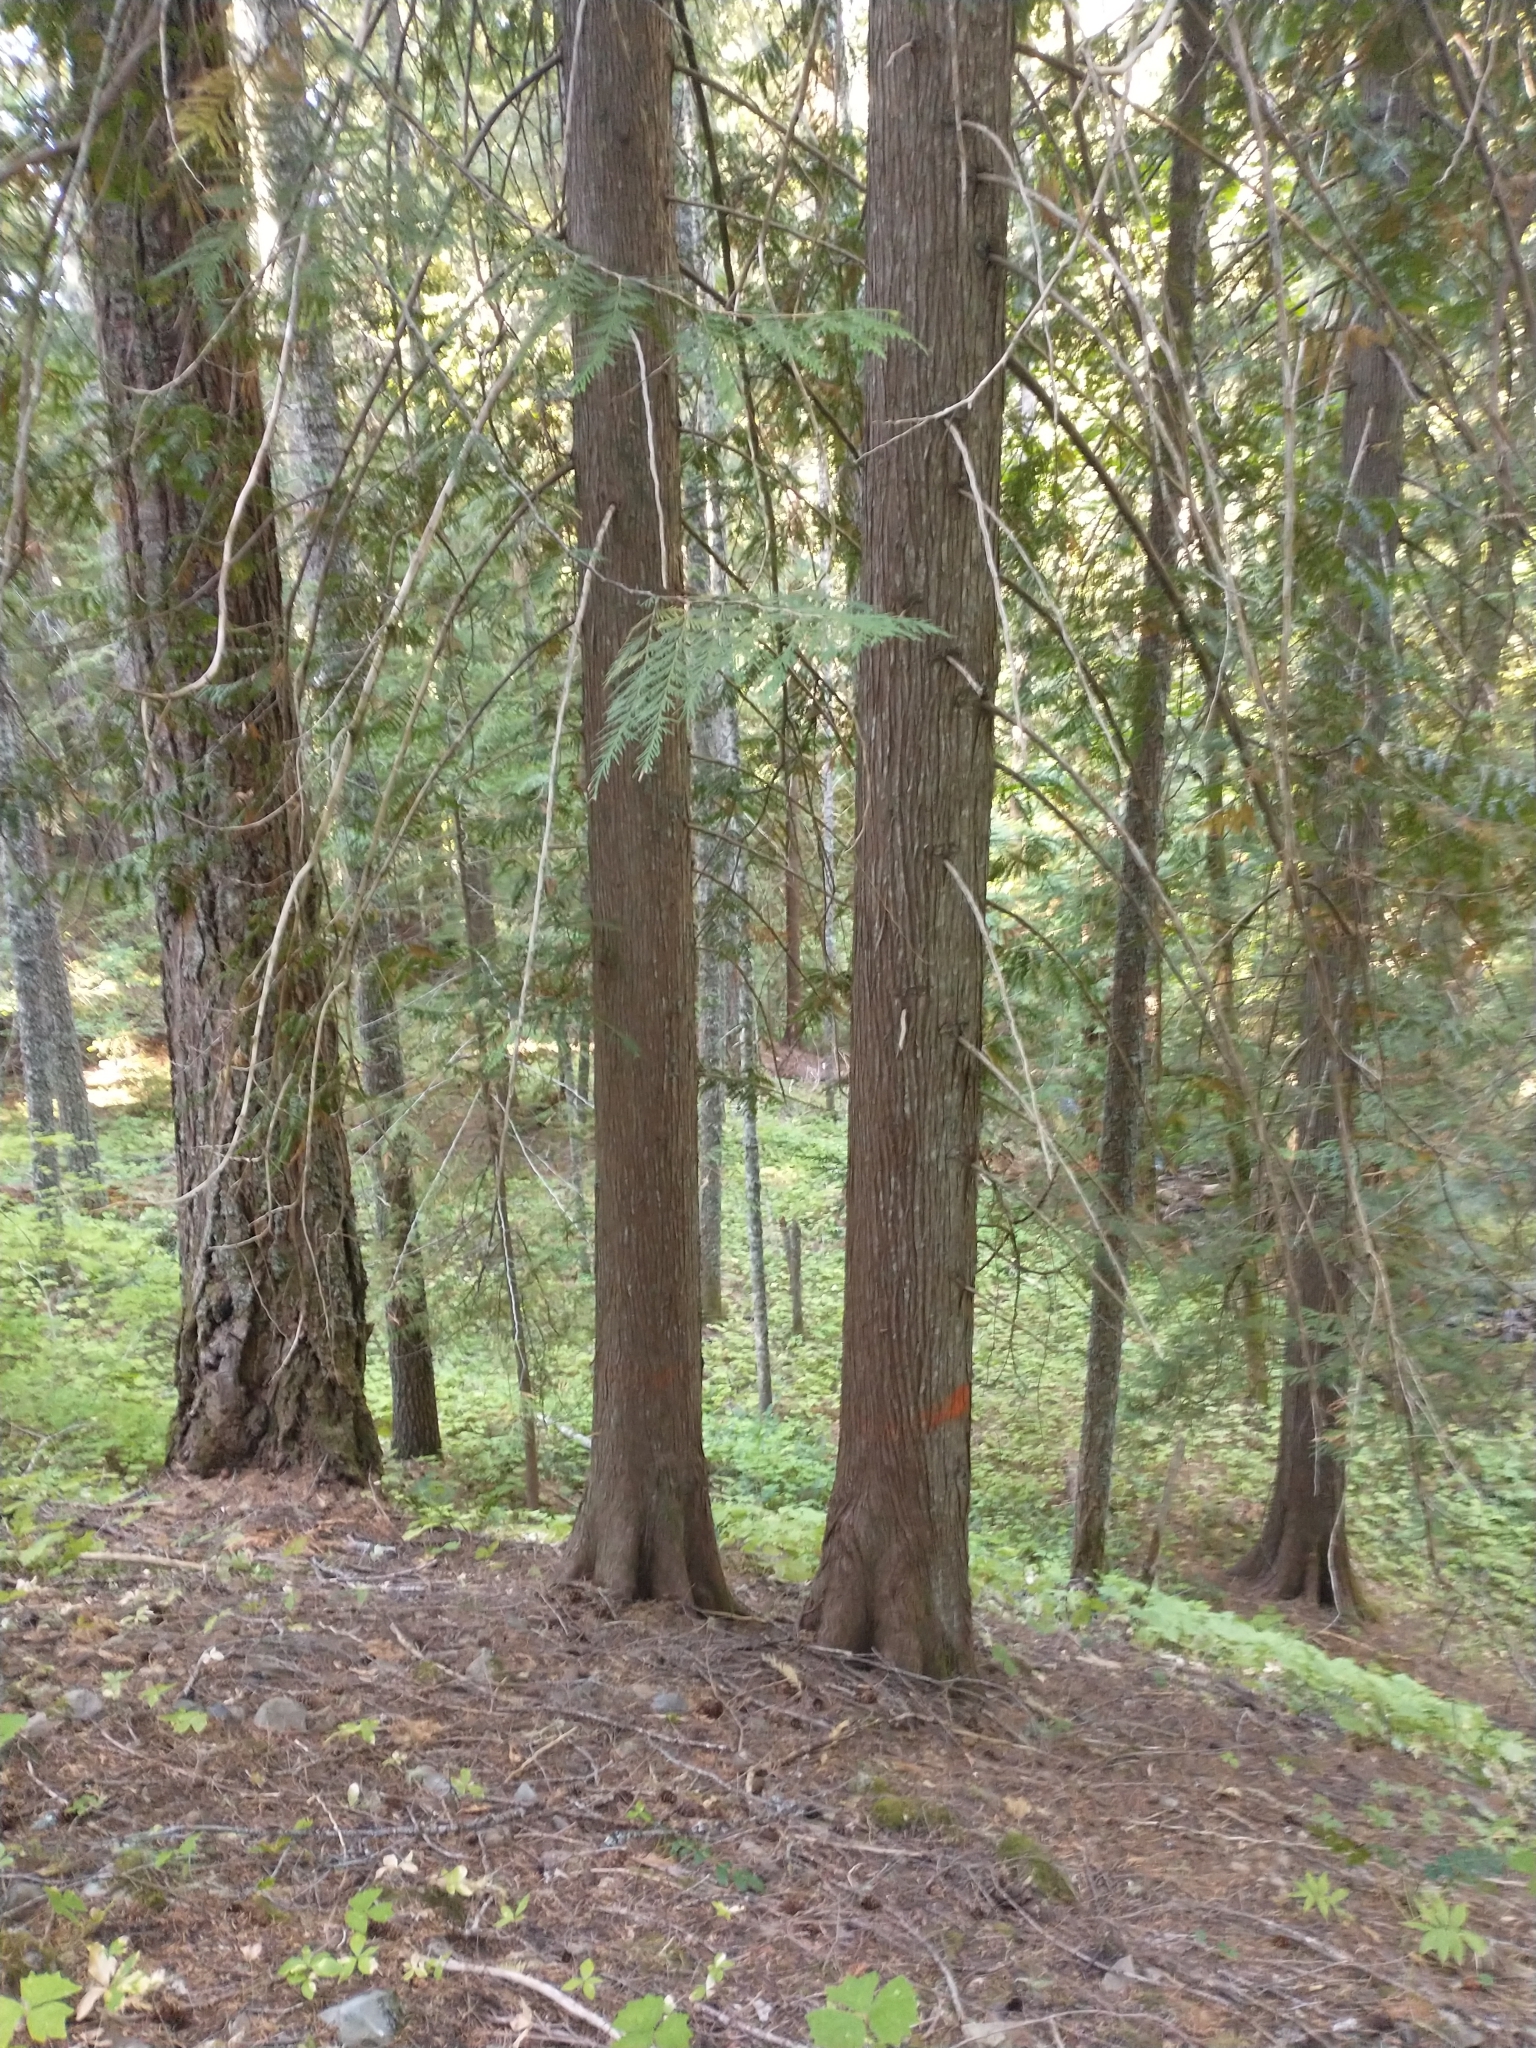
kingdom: Plantae
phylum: Tracheophyta
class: Pinopsida
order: Pinales
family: Cupressaceae
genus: Thuja
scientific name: Thuja plicata
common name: Western red-cedar
